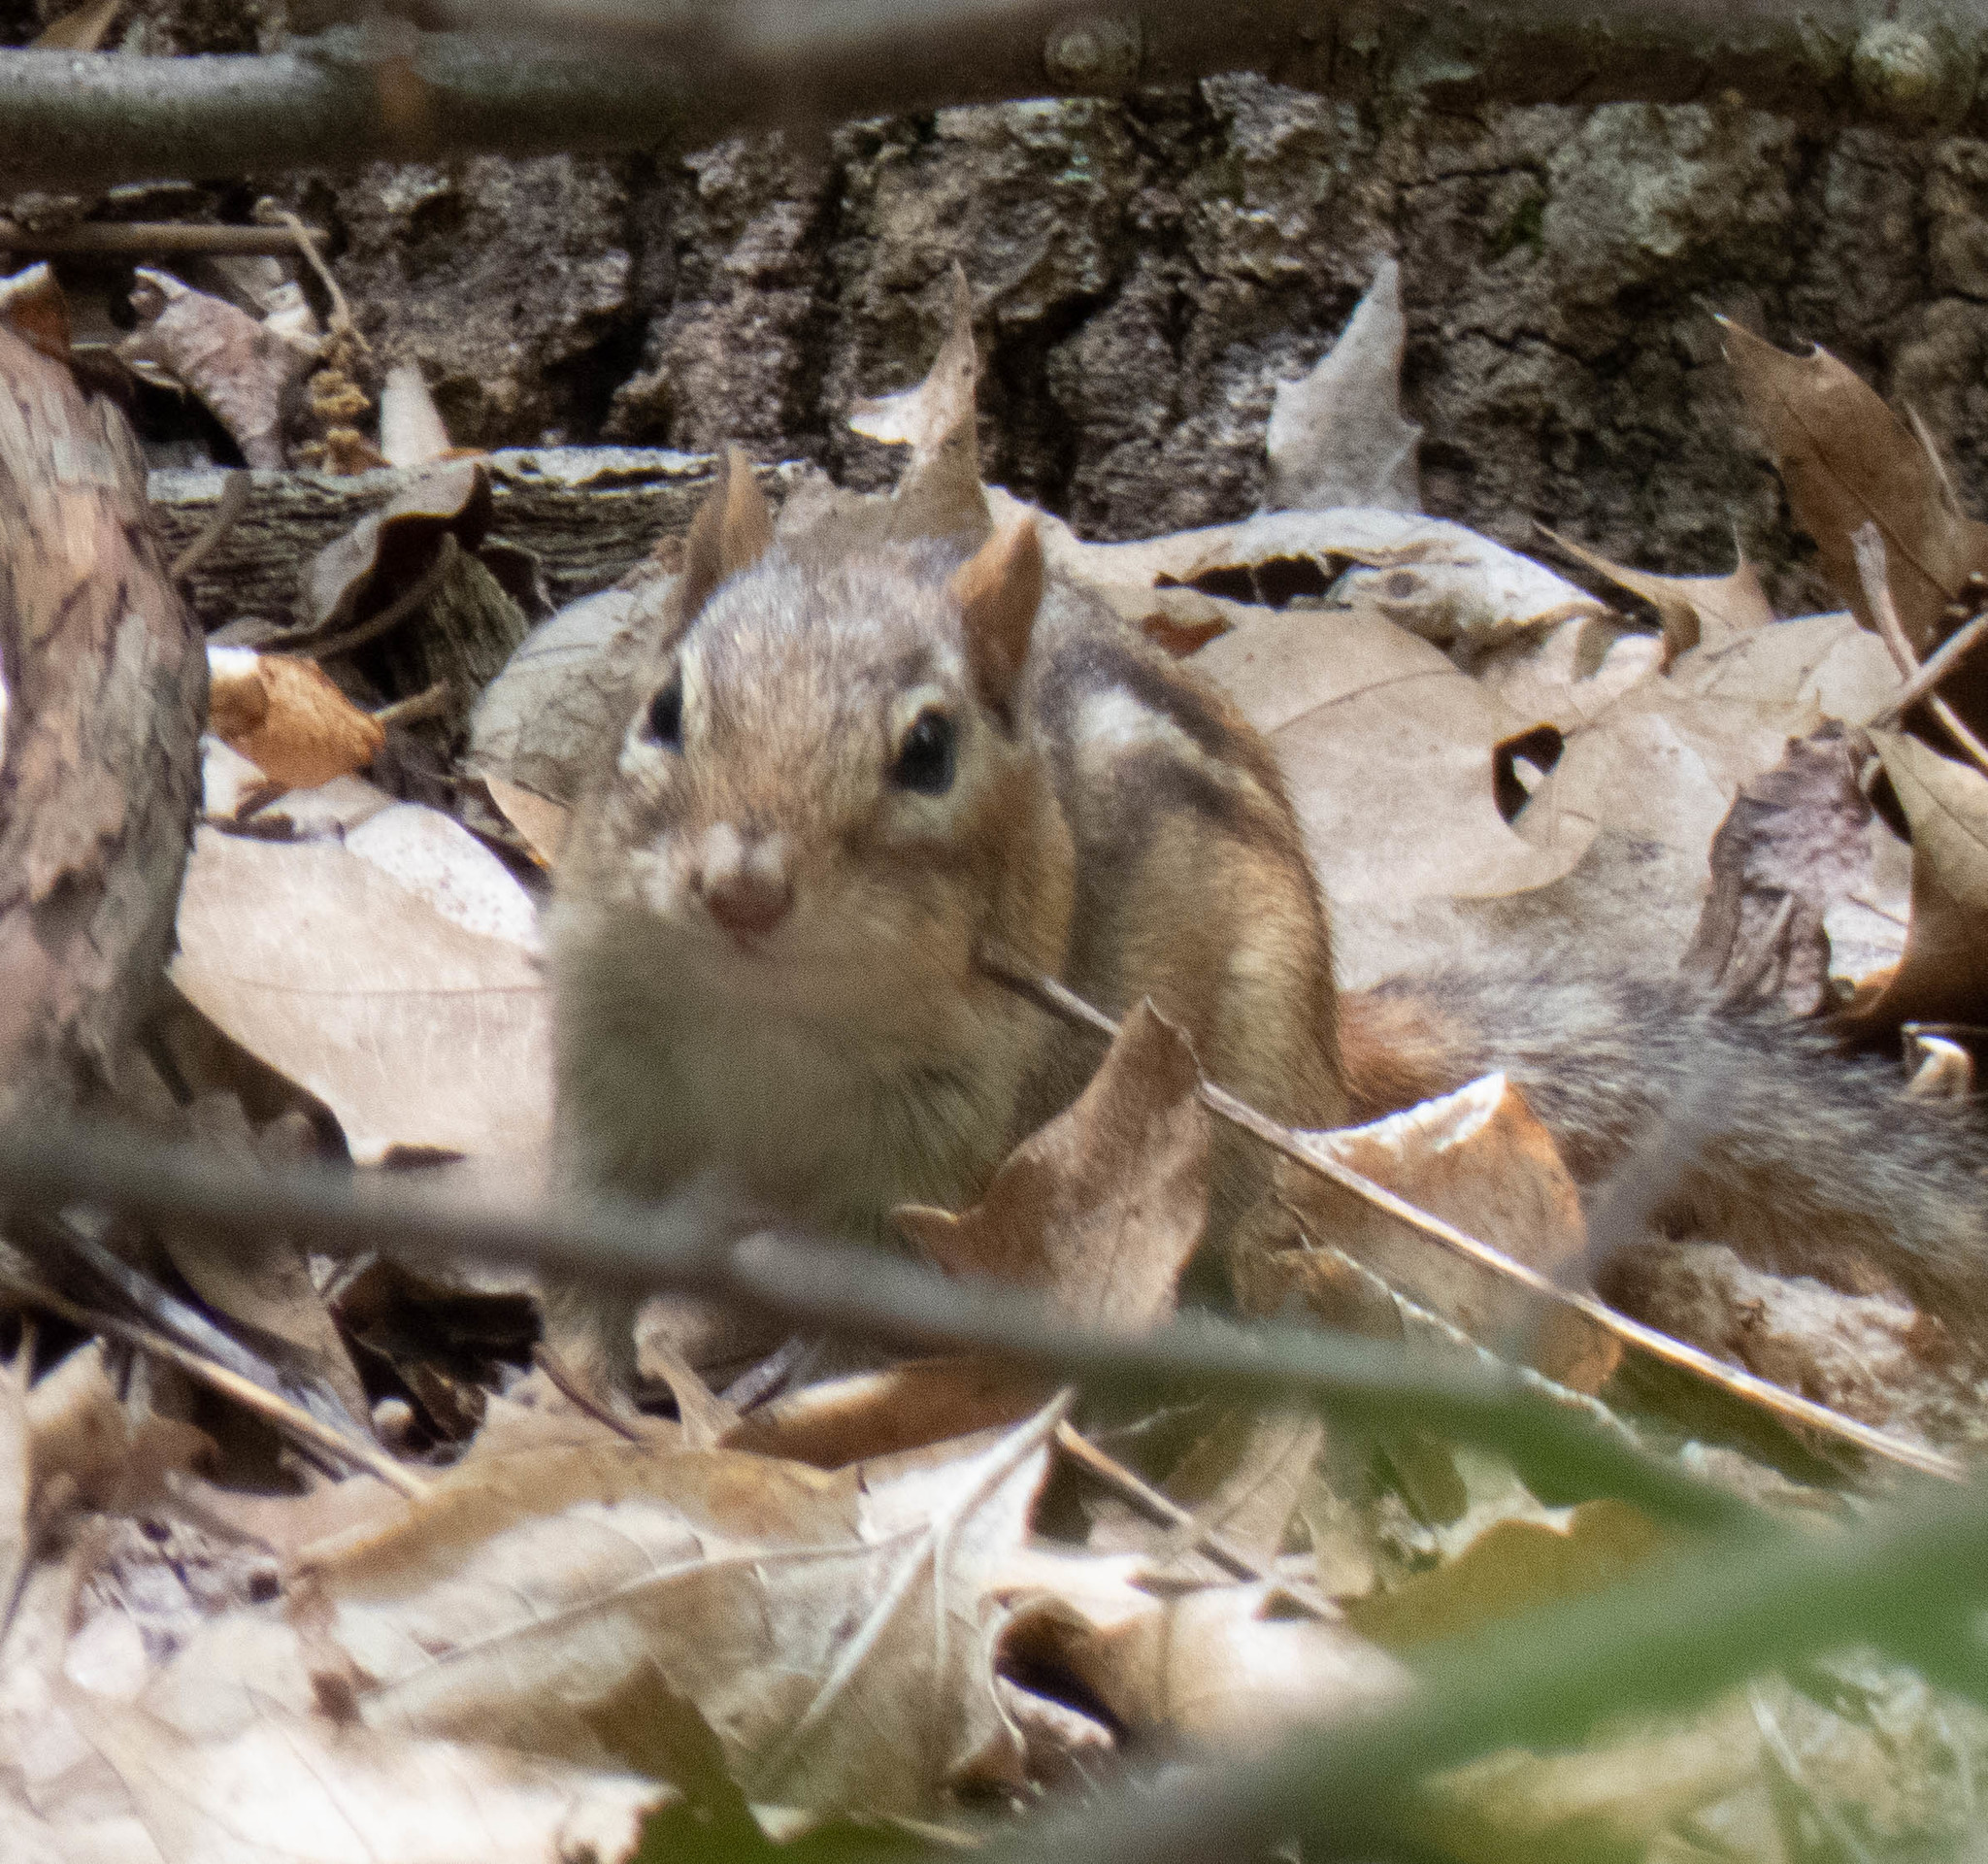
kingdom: Animalia
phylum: Chordata
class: Mammalia
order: Rodentia
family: Sciuridae
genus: Tamias
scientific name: Tamias striatus
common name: Eastern chipmunk
